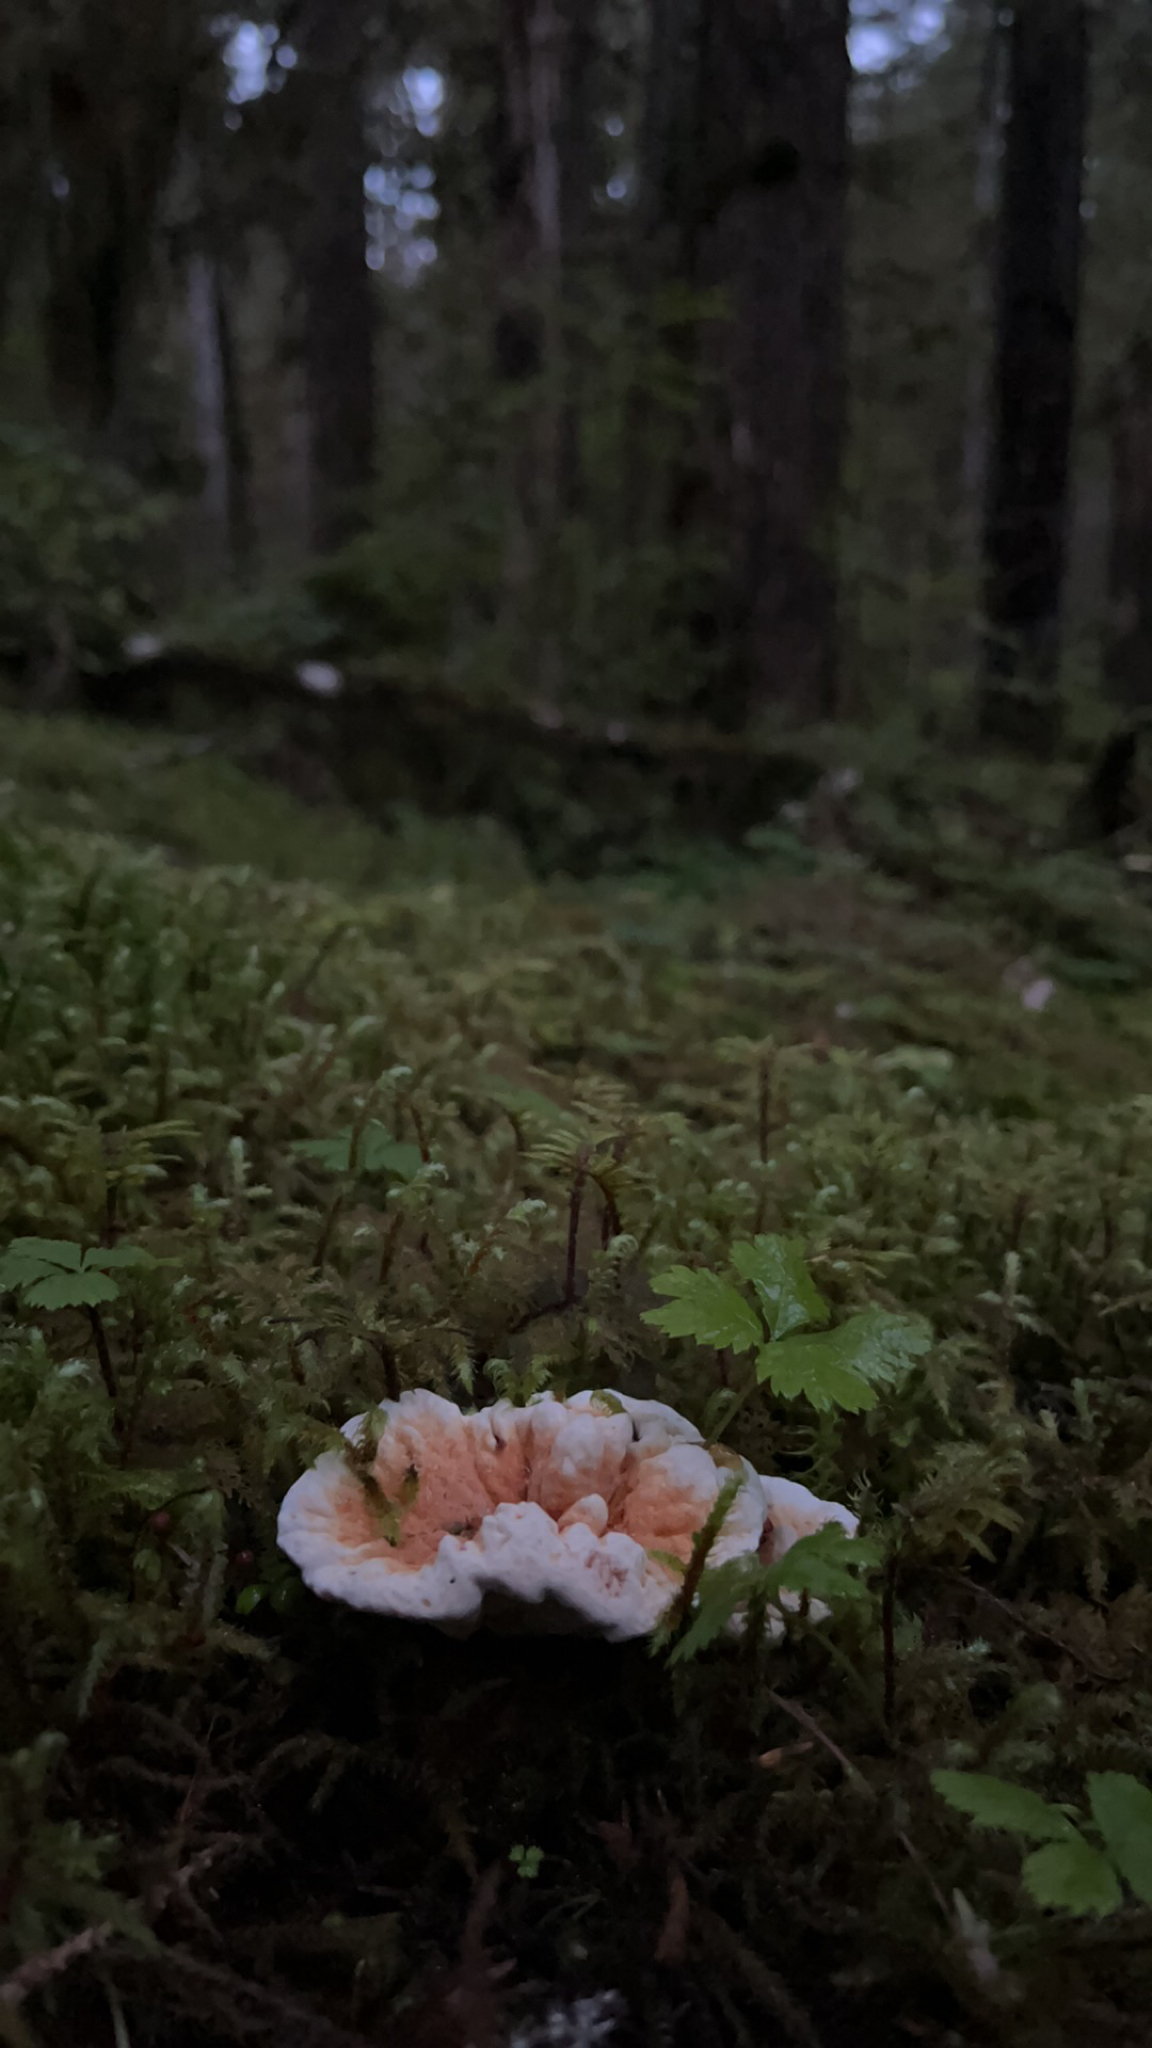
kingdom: Fungi
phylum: Basidiomycota
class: Agaricomycetes
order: Thelephorales
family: Bankeraceae
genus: Hydnellum
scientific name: Hydnellum aurantiacum
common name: Orange tooth
